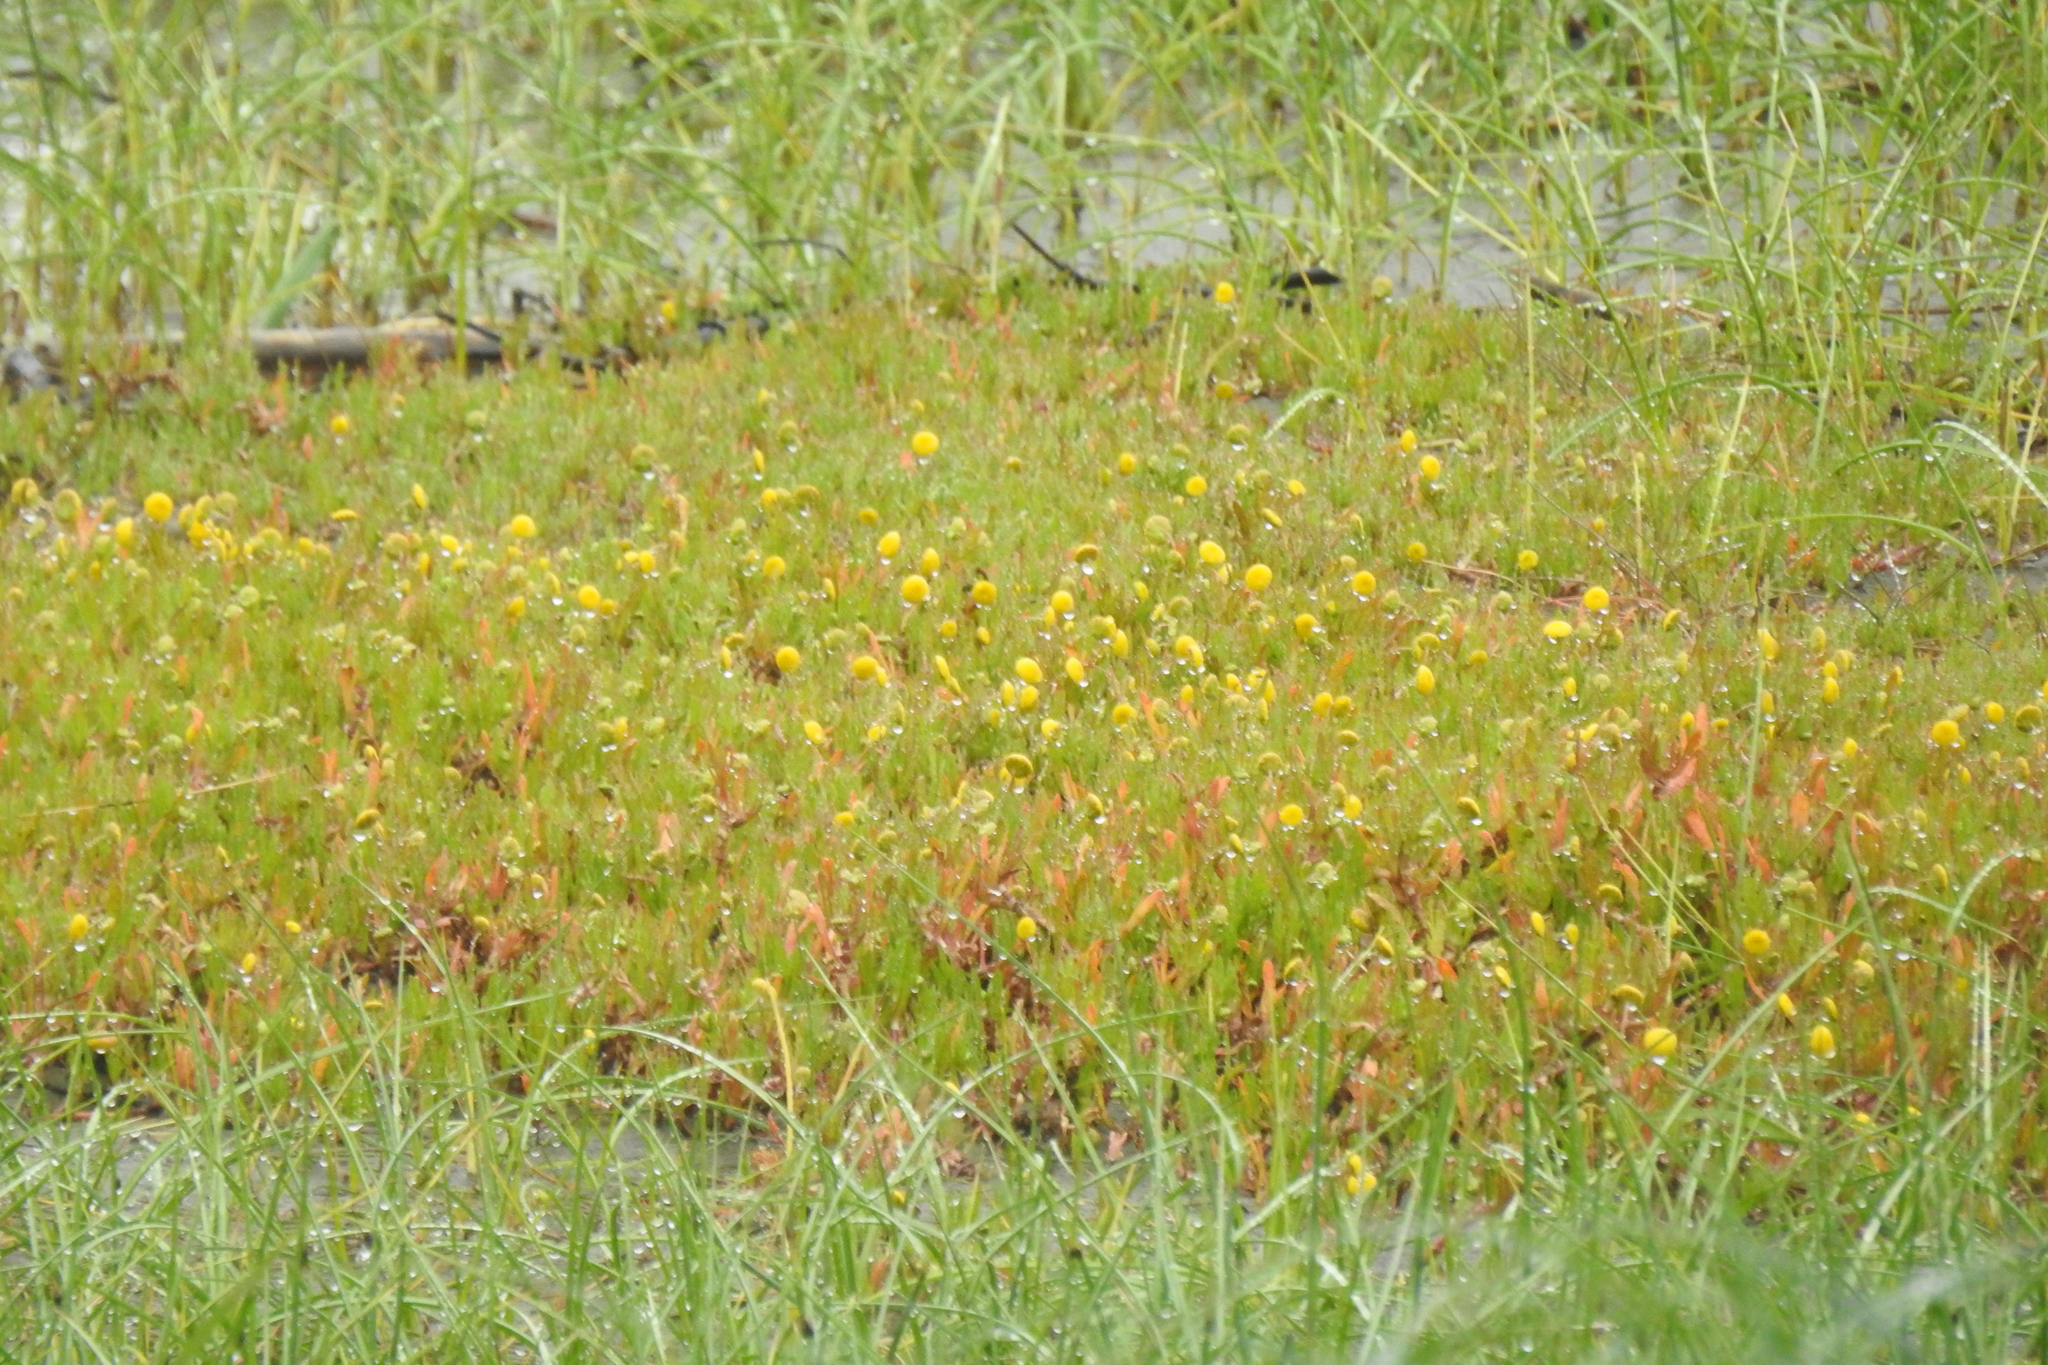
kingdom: Plantae
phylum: Tracheophyta
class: Magnoliopsida
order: Asterales
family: Asteraceae
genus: Cotula
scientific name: Cotula coronopifolia
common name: Buttonweed
